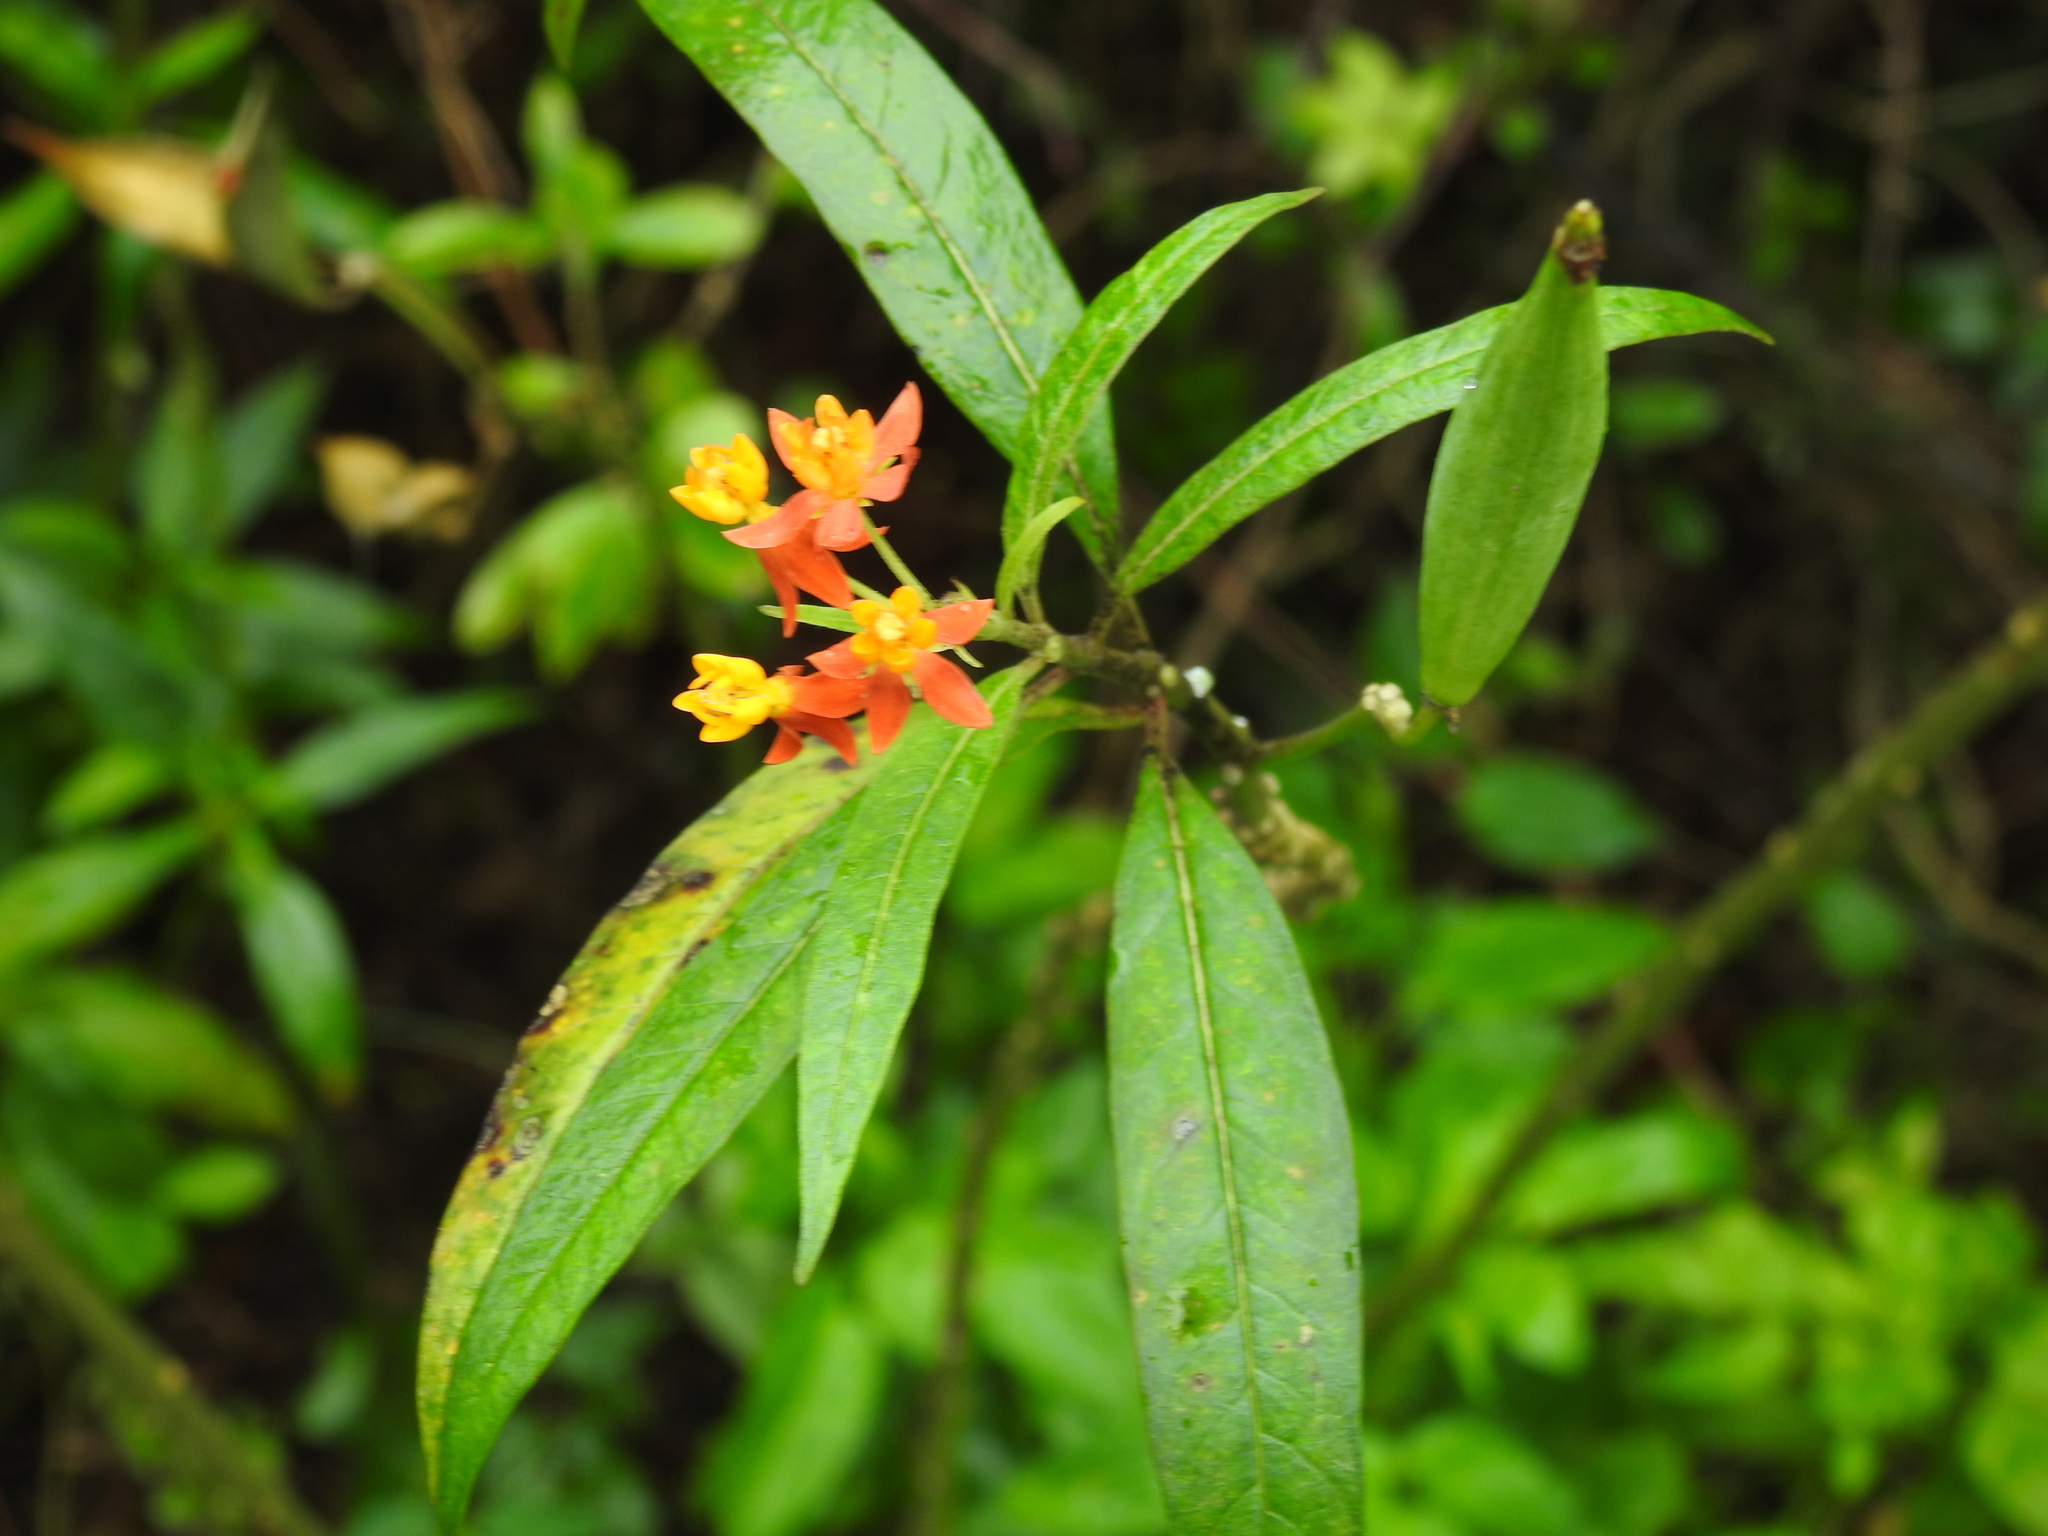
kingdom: Plantae
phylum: Tracheophyta
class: Magnoliopsida
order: Gentianales
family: Apocynaceae
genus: Asclepias
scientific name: Asclepias curassavica
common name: Bloodflower
